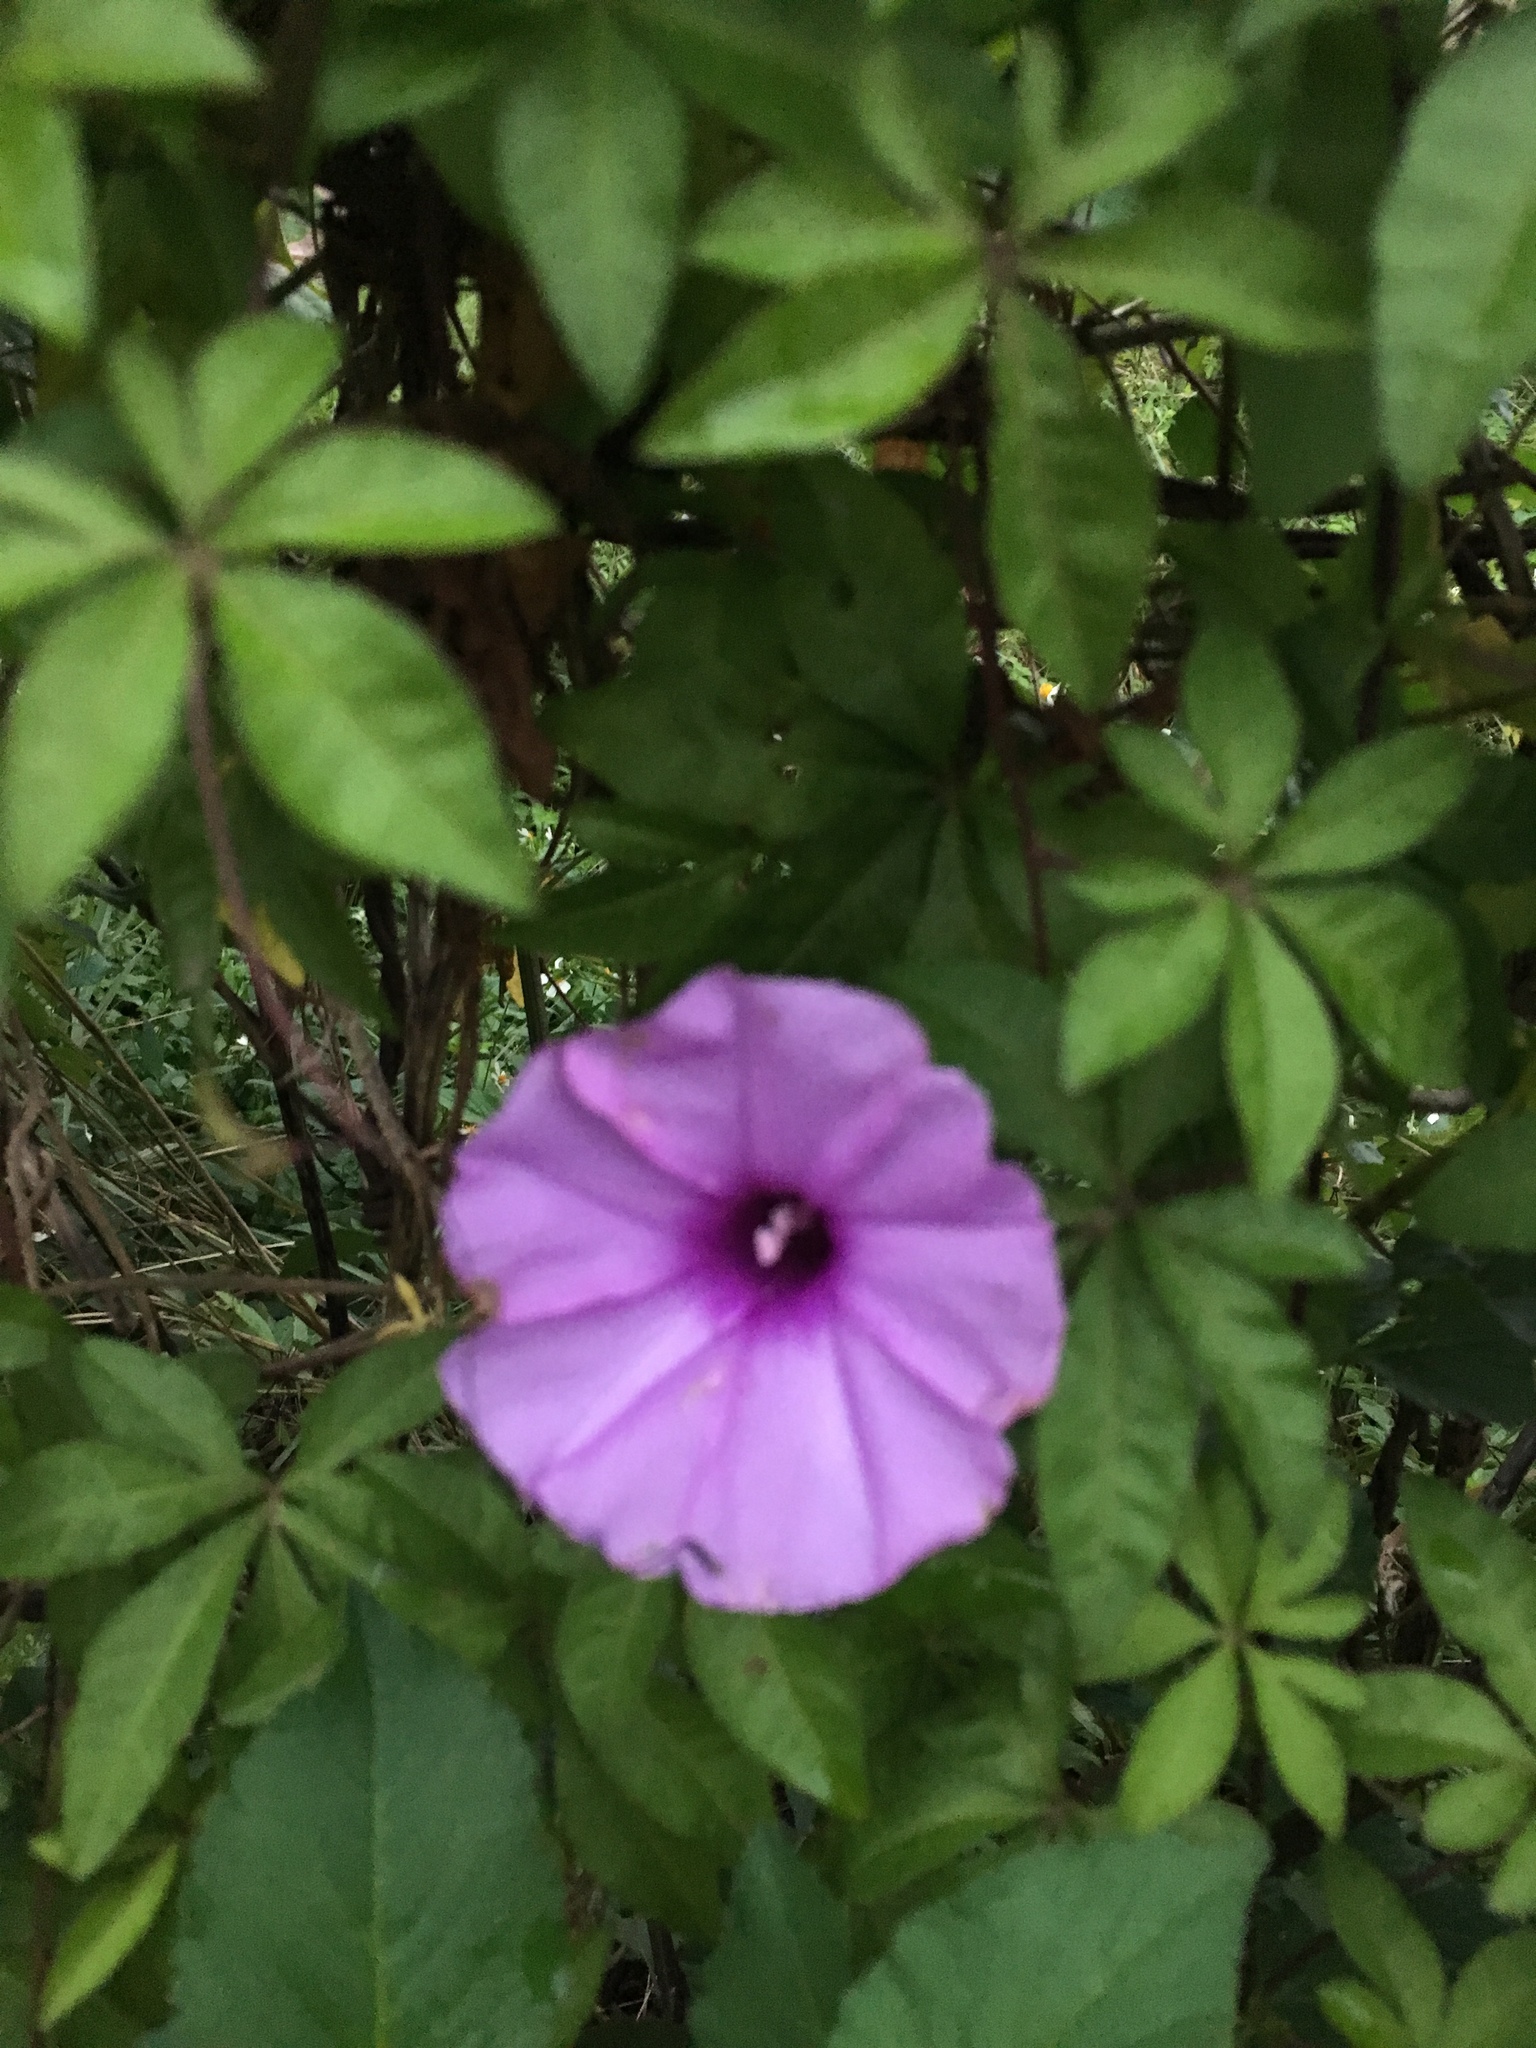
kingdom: Plantae
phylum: Tracheophyta
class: Magnoliopsida
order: Solanales
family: Convolvulaceae
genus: Ipomoea
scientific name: Ipomoea cairica
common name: Mile a minute vine
